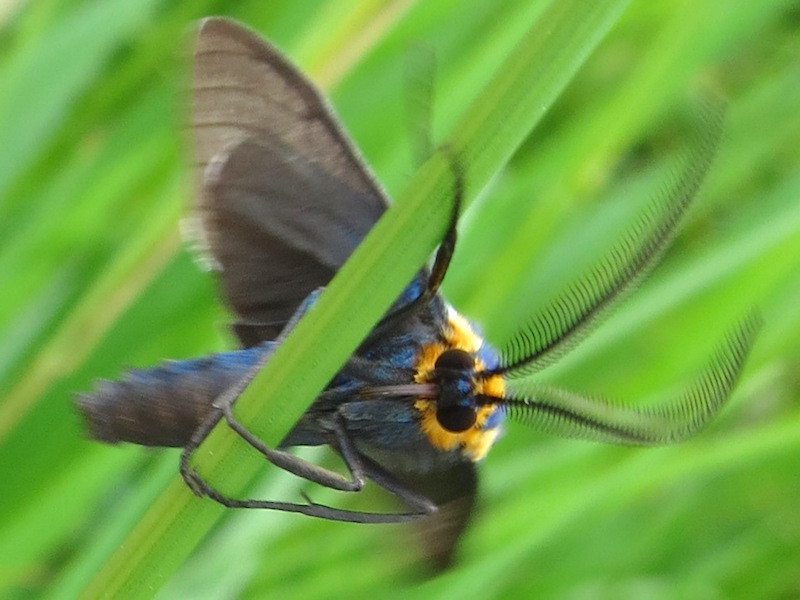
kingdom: Animalia
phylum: Arthropoda
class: Insecta
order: Lepidoptera
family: Erebidae
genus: Ctenucha
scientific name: Ctenucha virginica
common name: Virginia ctenucha moth
